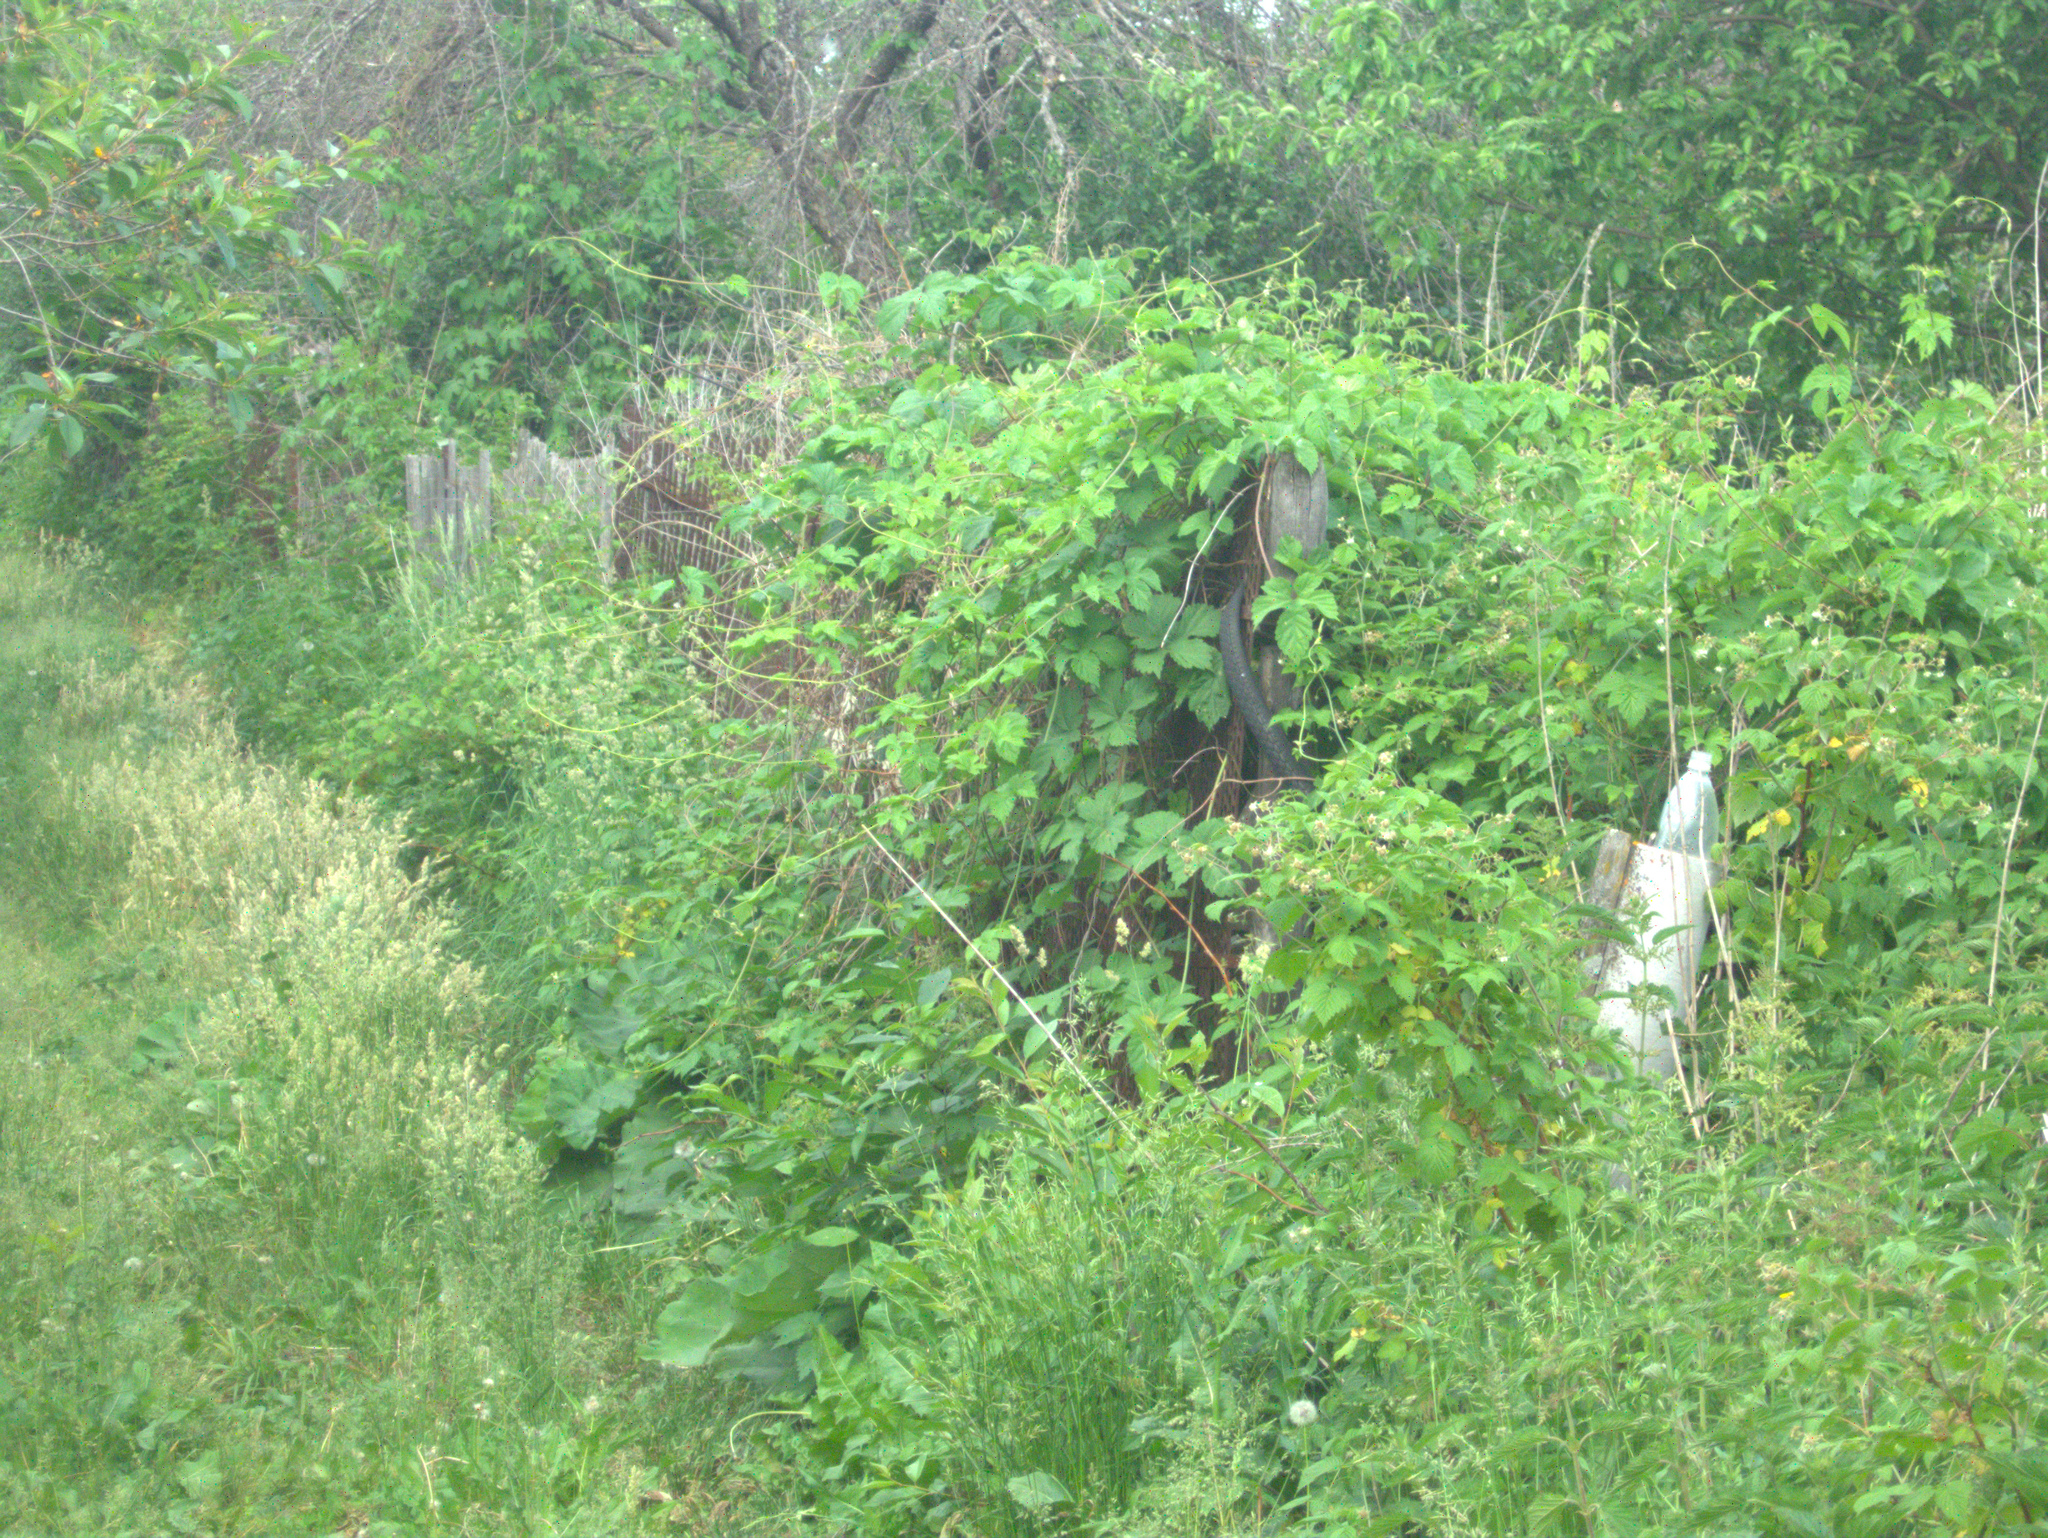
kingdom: Plantae
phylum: Tracheophyta
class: Magnoliopsida
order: Rosales
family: Cannabaceae
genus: Humulus
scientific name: Humulus lupulus
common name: Hop
